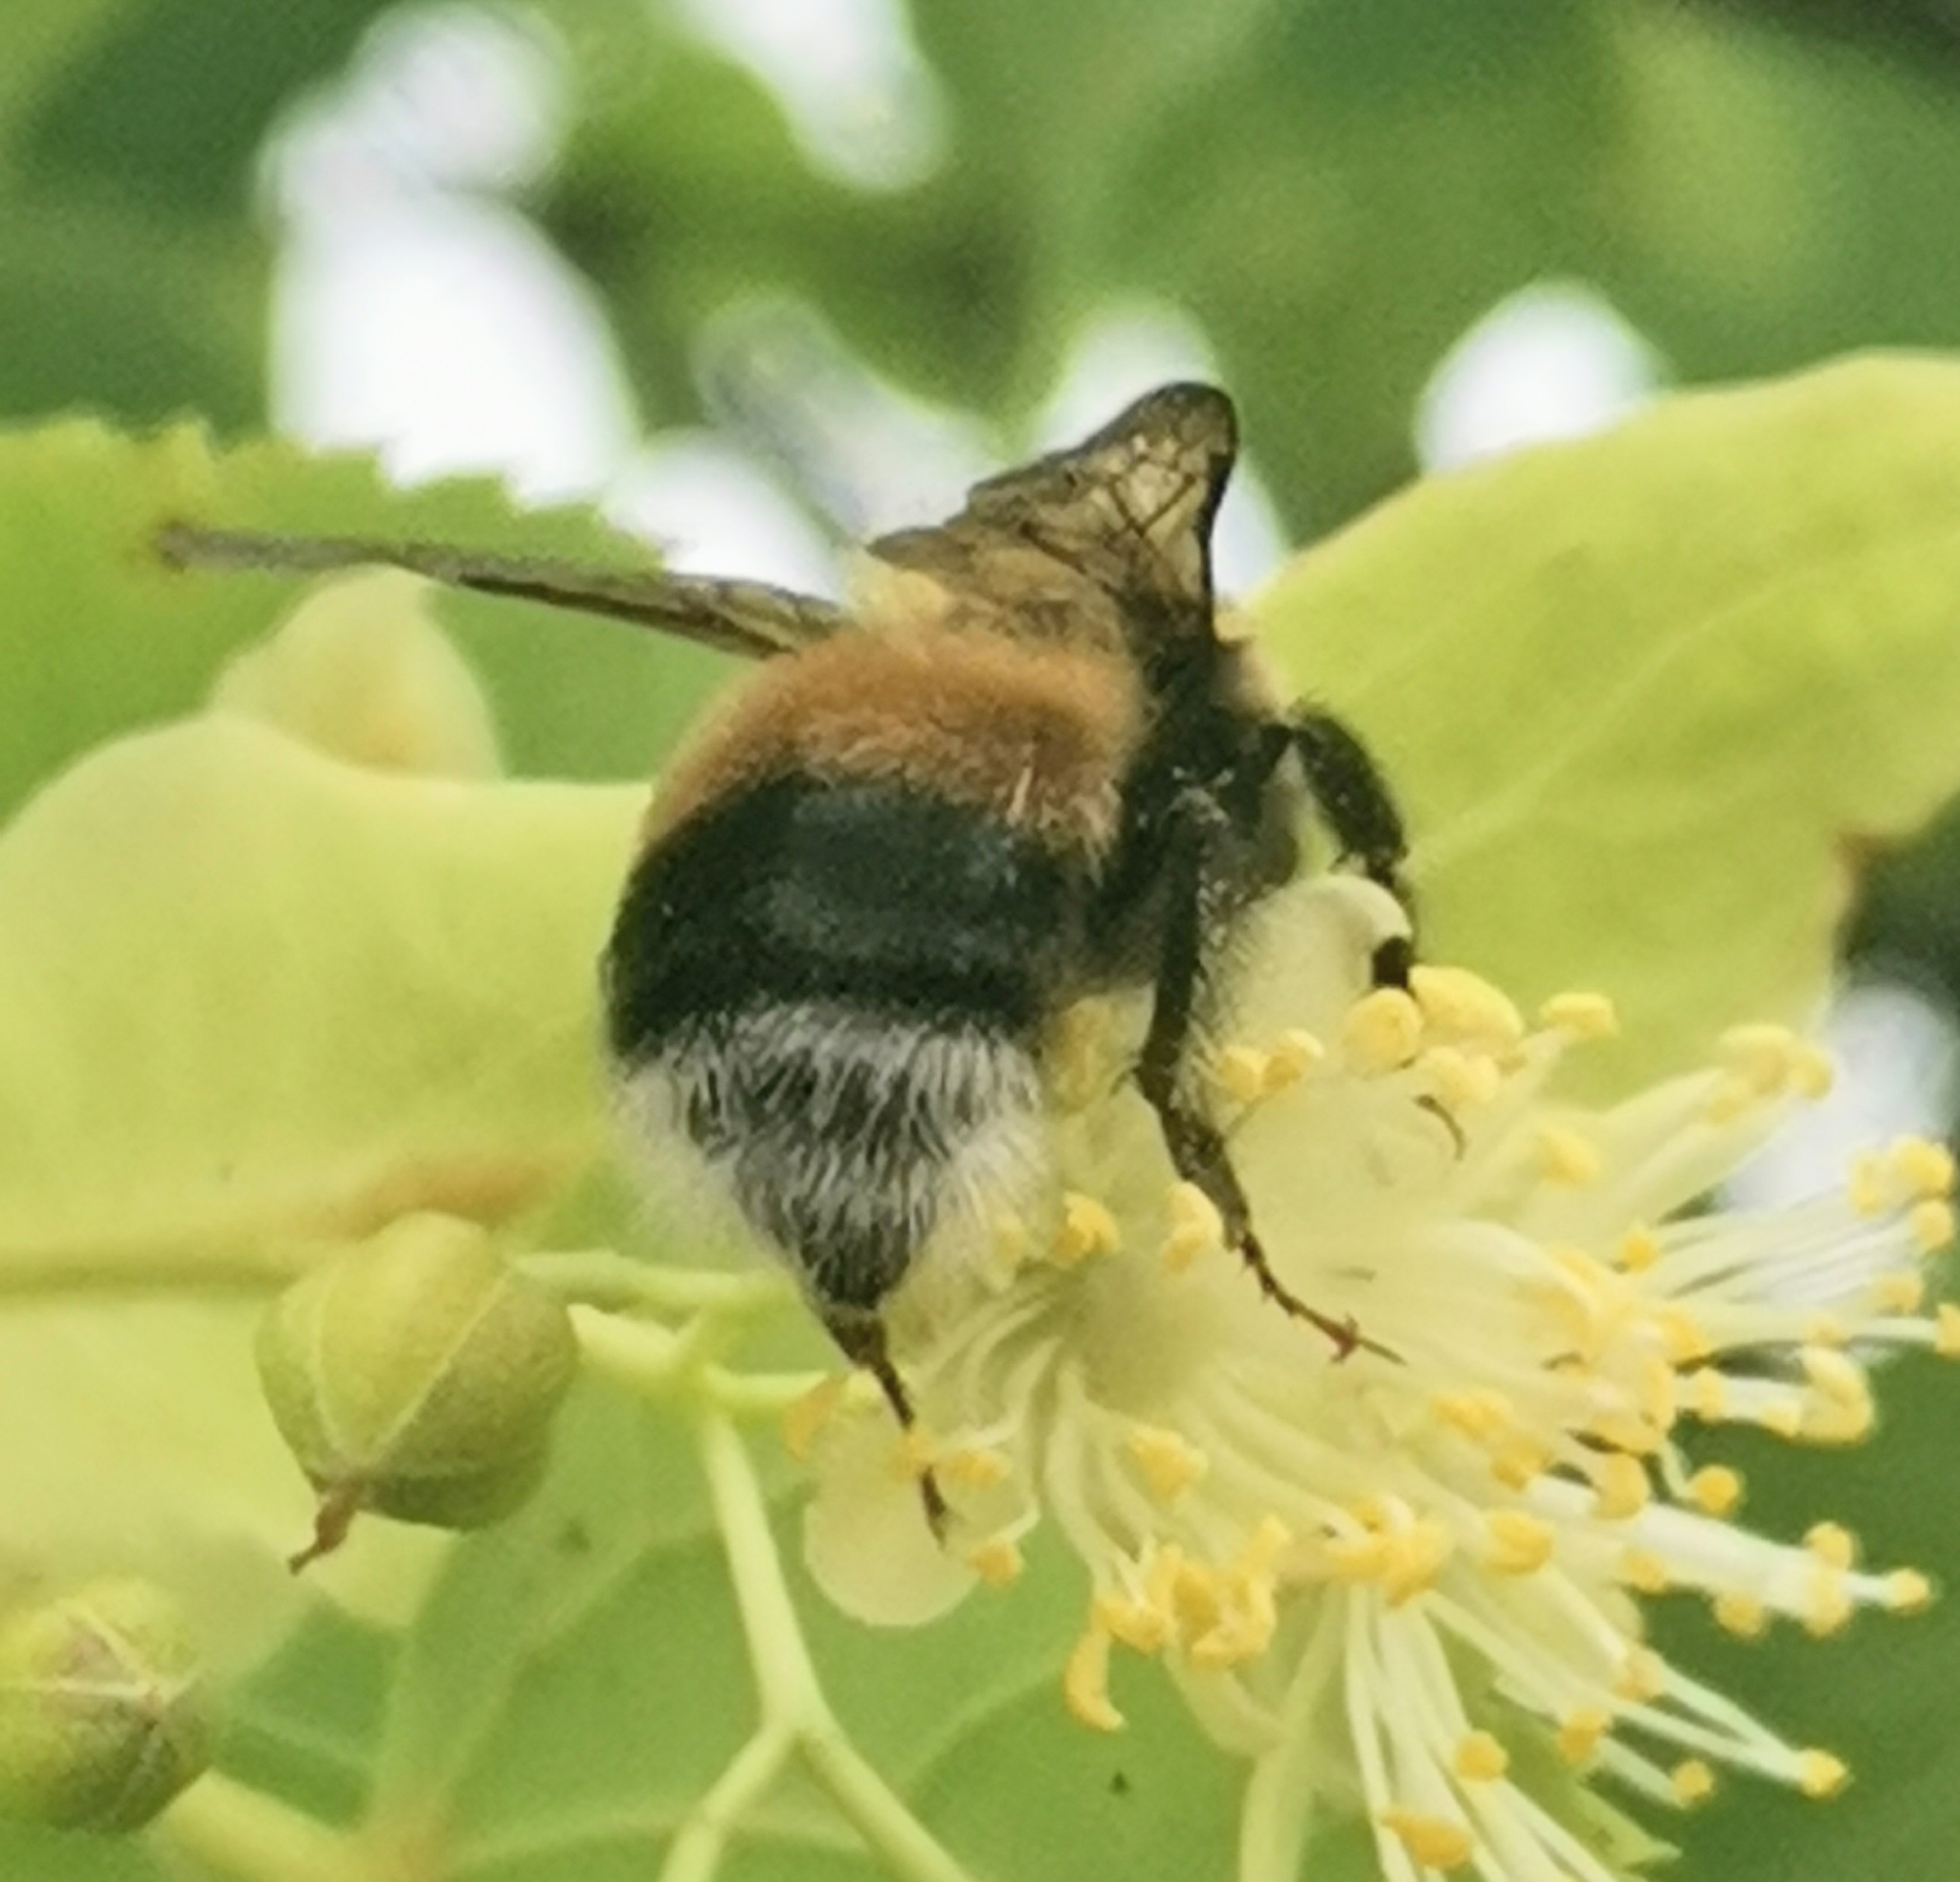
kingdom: Animalia
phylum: Arthropoda
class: Insecta
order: Hymenoptera
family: Apidae
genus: Bombus
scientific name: Bombus sporadicus
